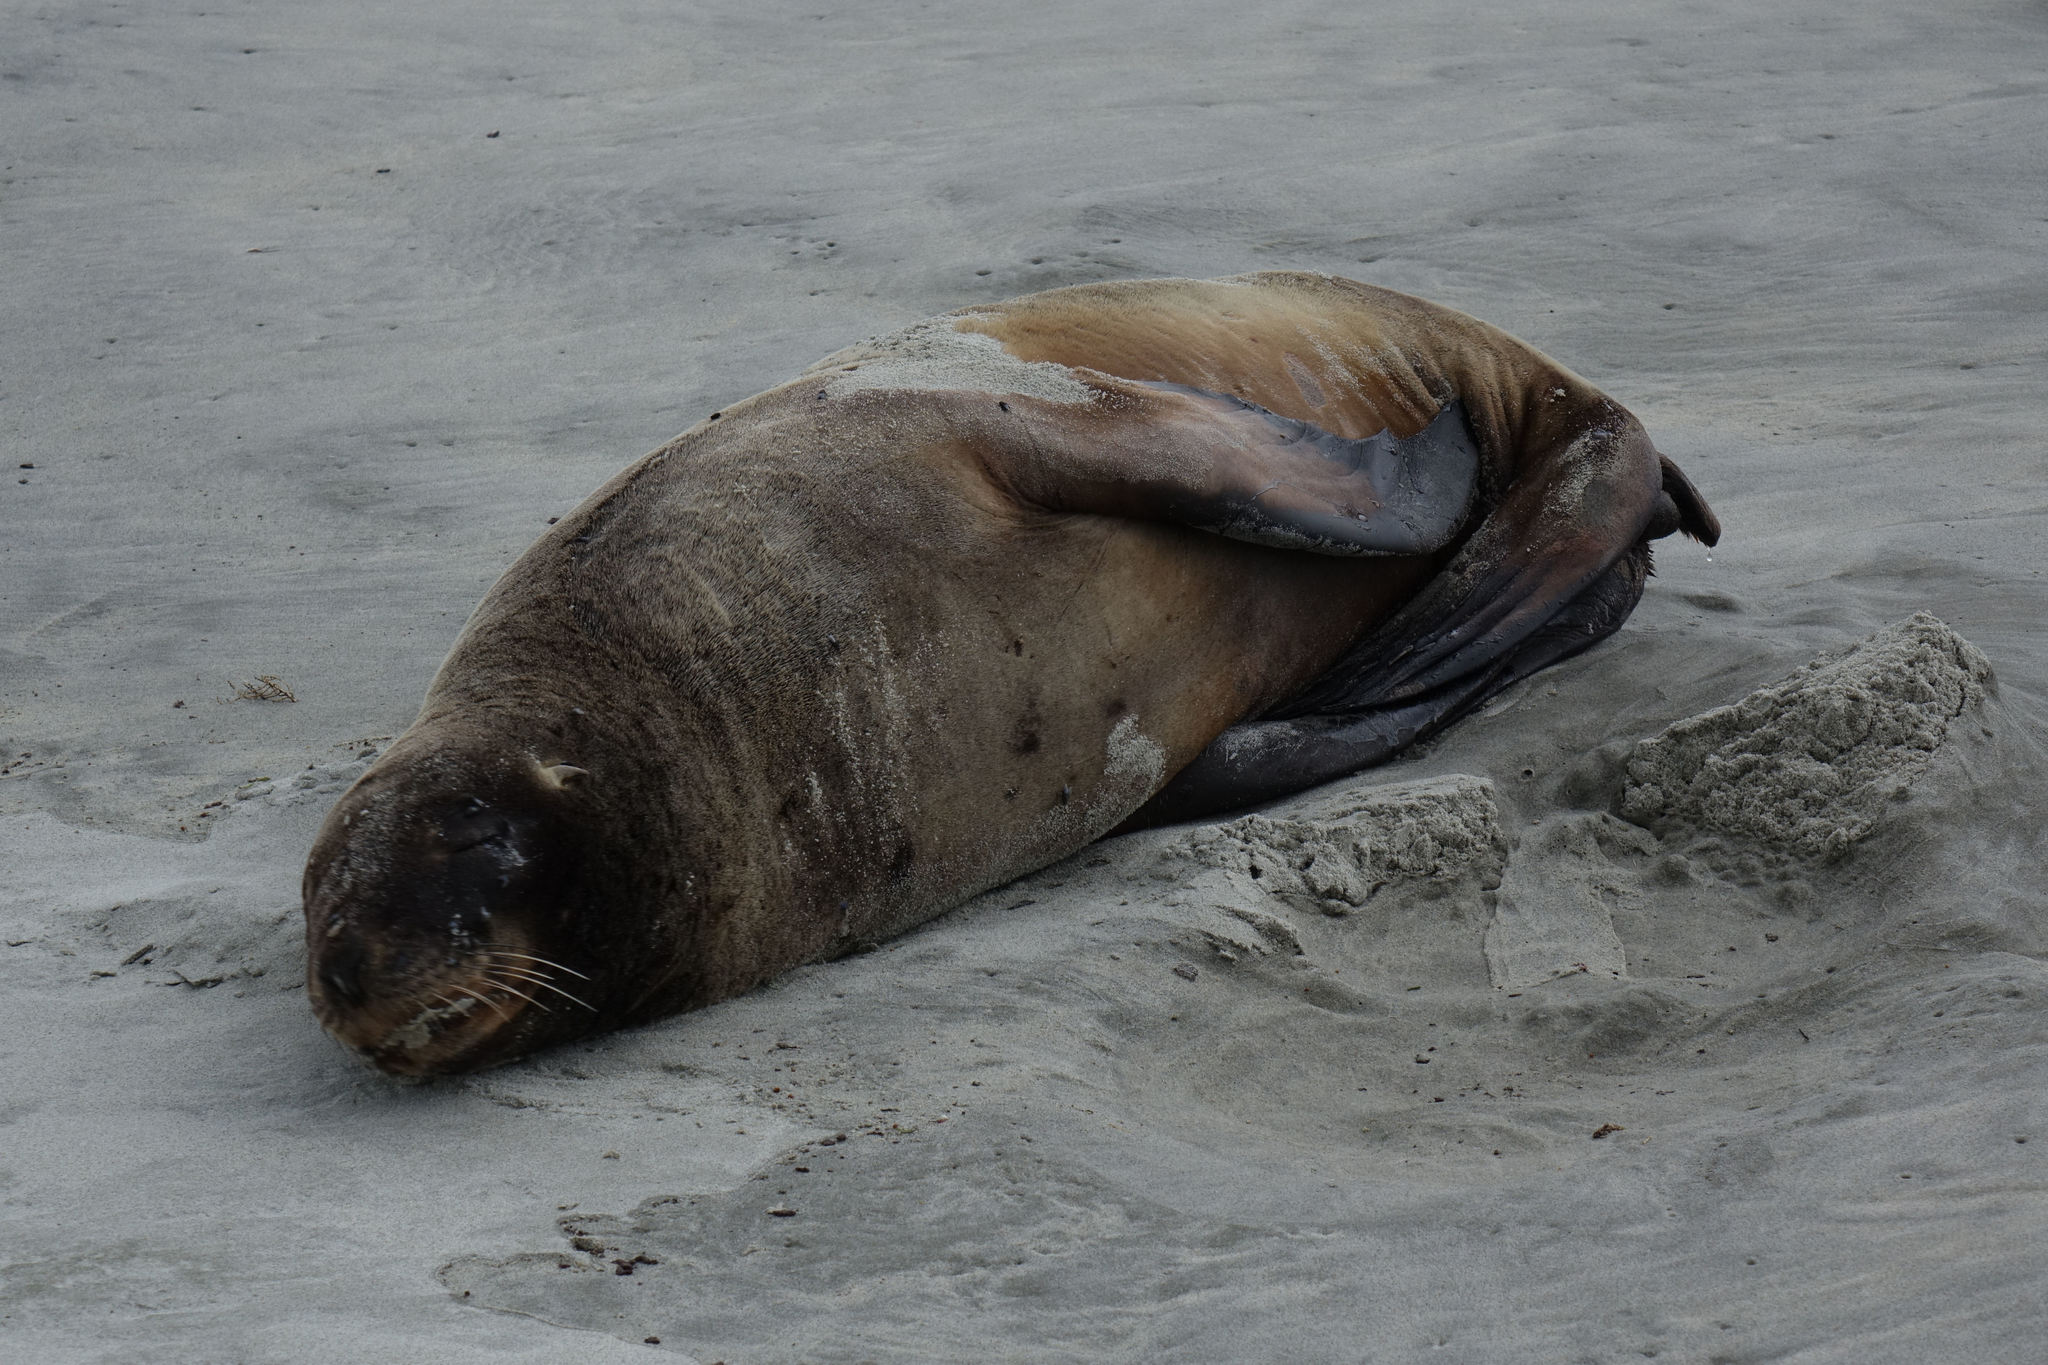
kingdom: Animalia
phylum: Chordata
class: Mammalia
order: Carnivora
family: Otariidae
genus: Phocarctos
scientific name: Phocarctos hookeri
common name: New zealand sea lion
